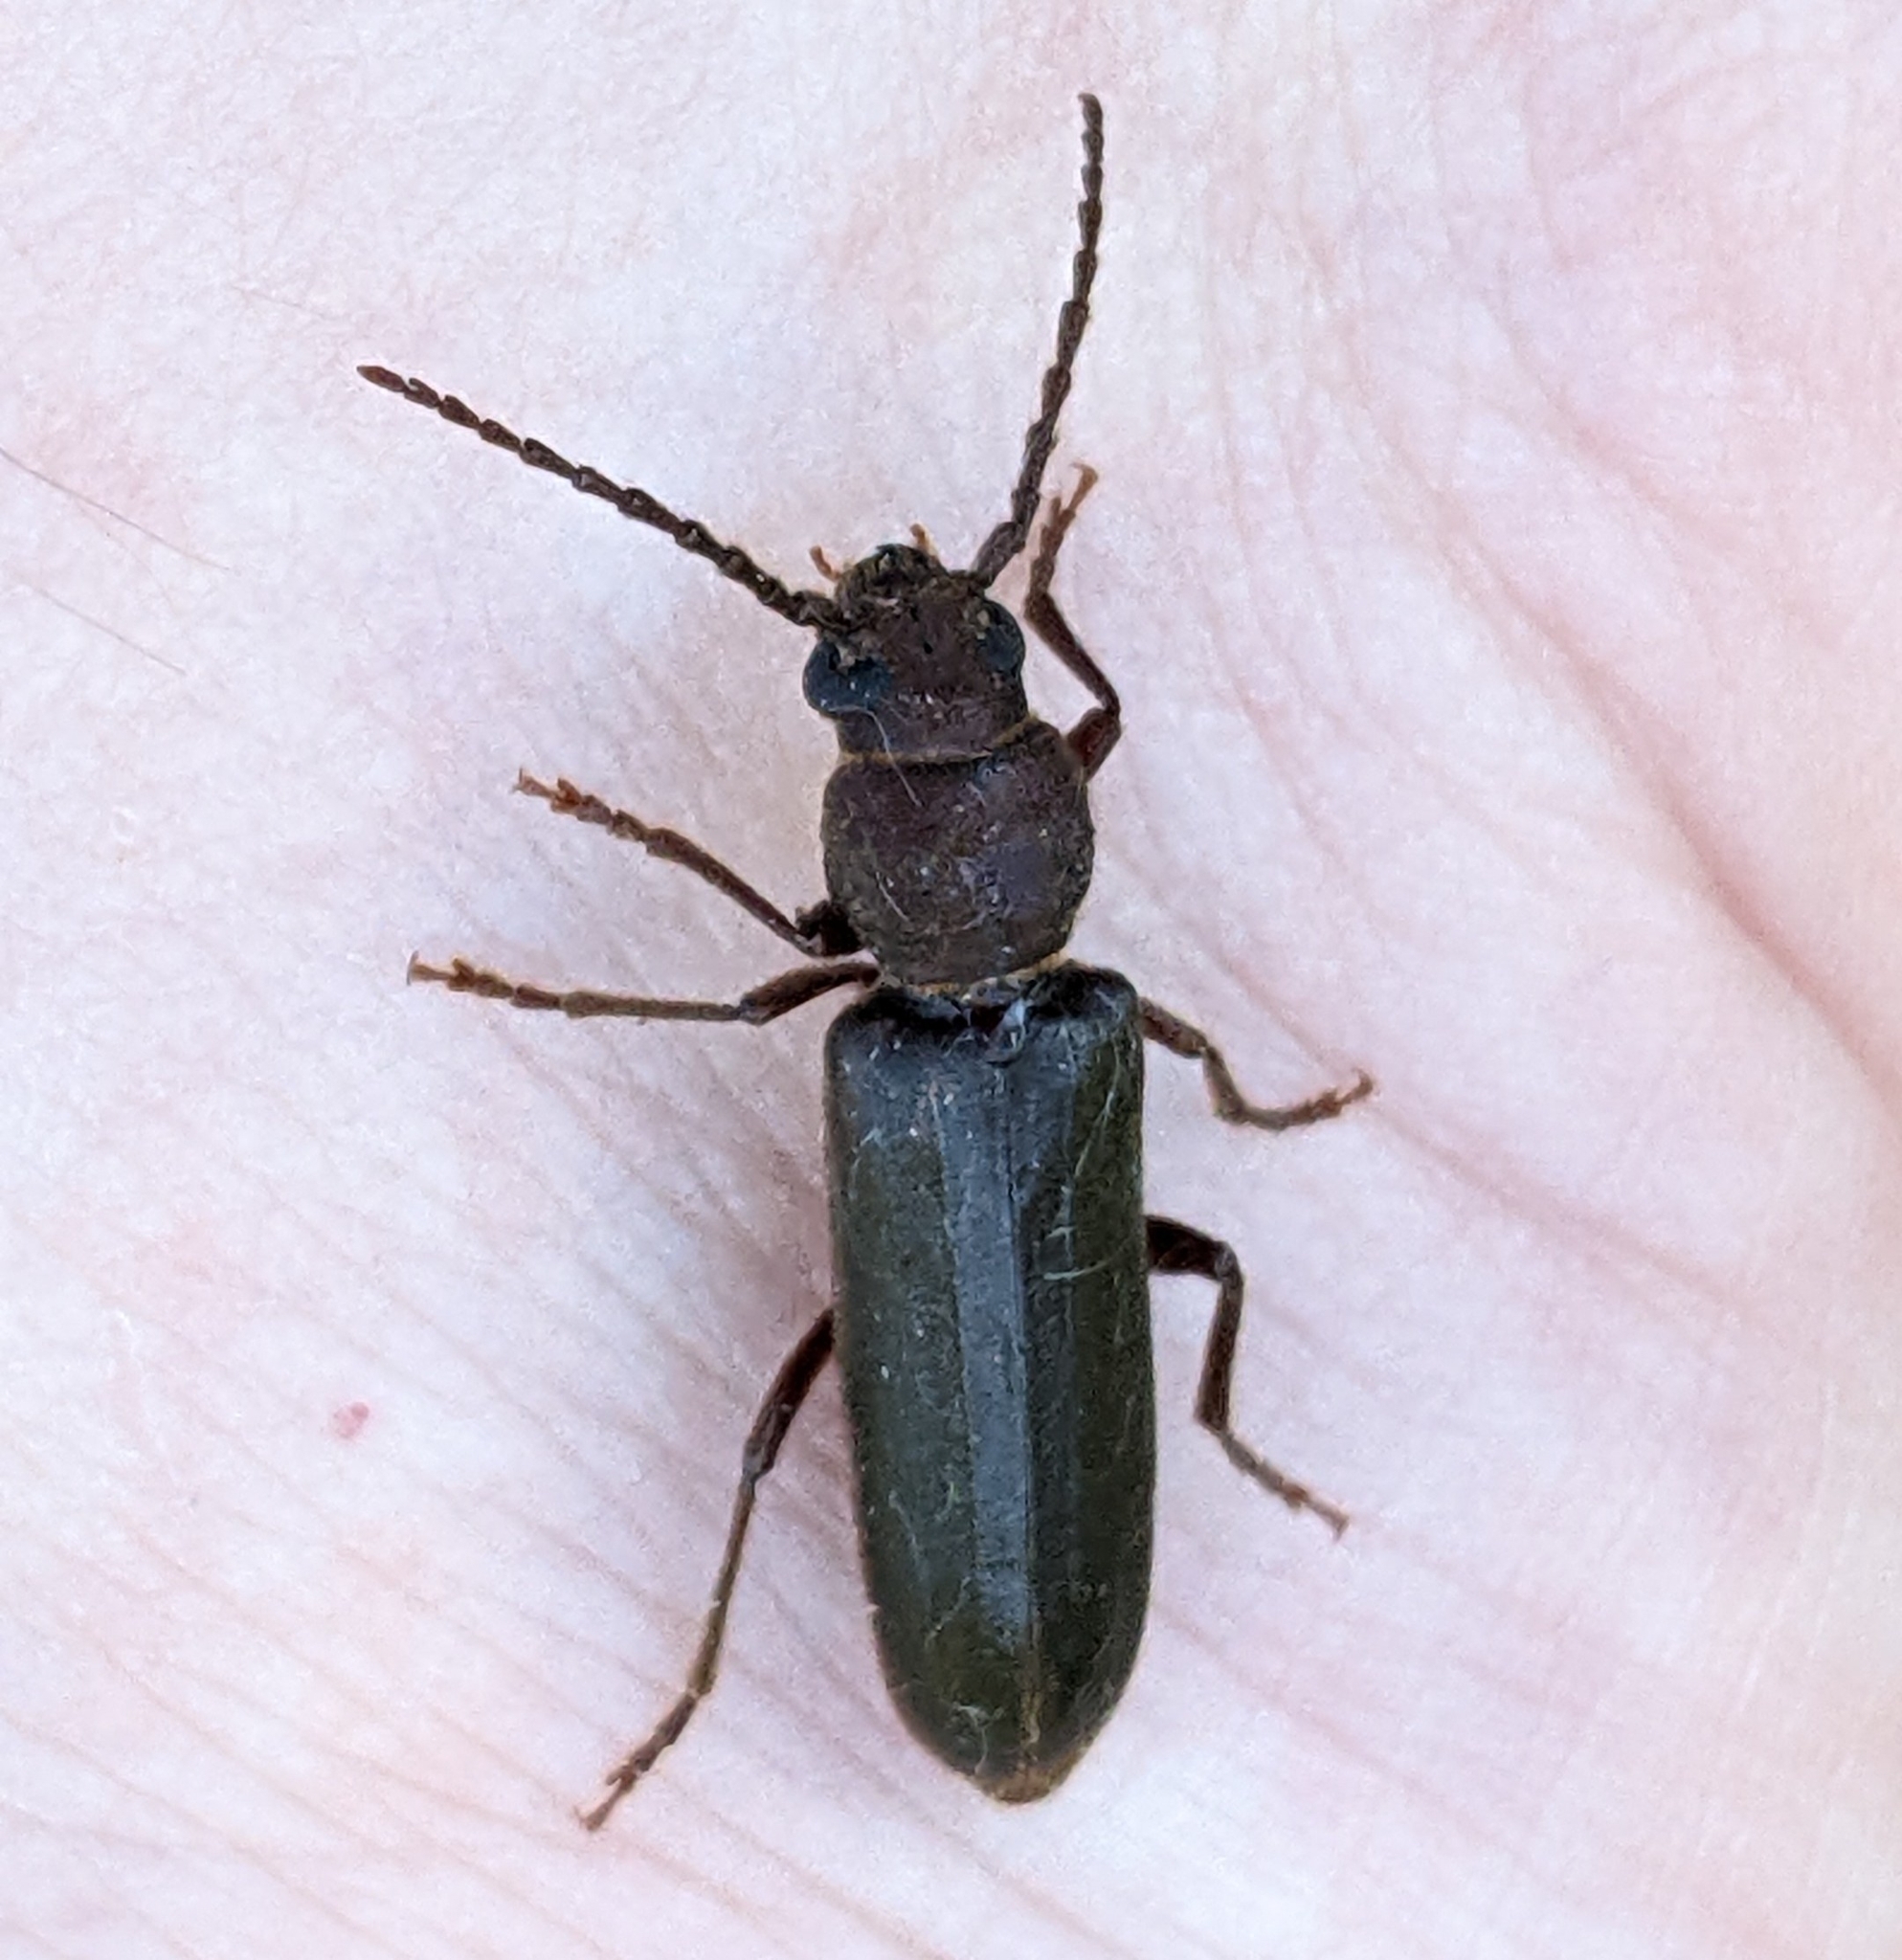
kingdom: Animalia
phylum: Arthropoda
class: Insecta
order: Coleoptera
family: Cerambycidae
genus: Megasemum
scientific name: Megasemum asperum
